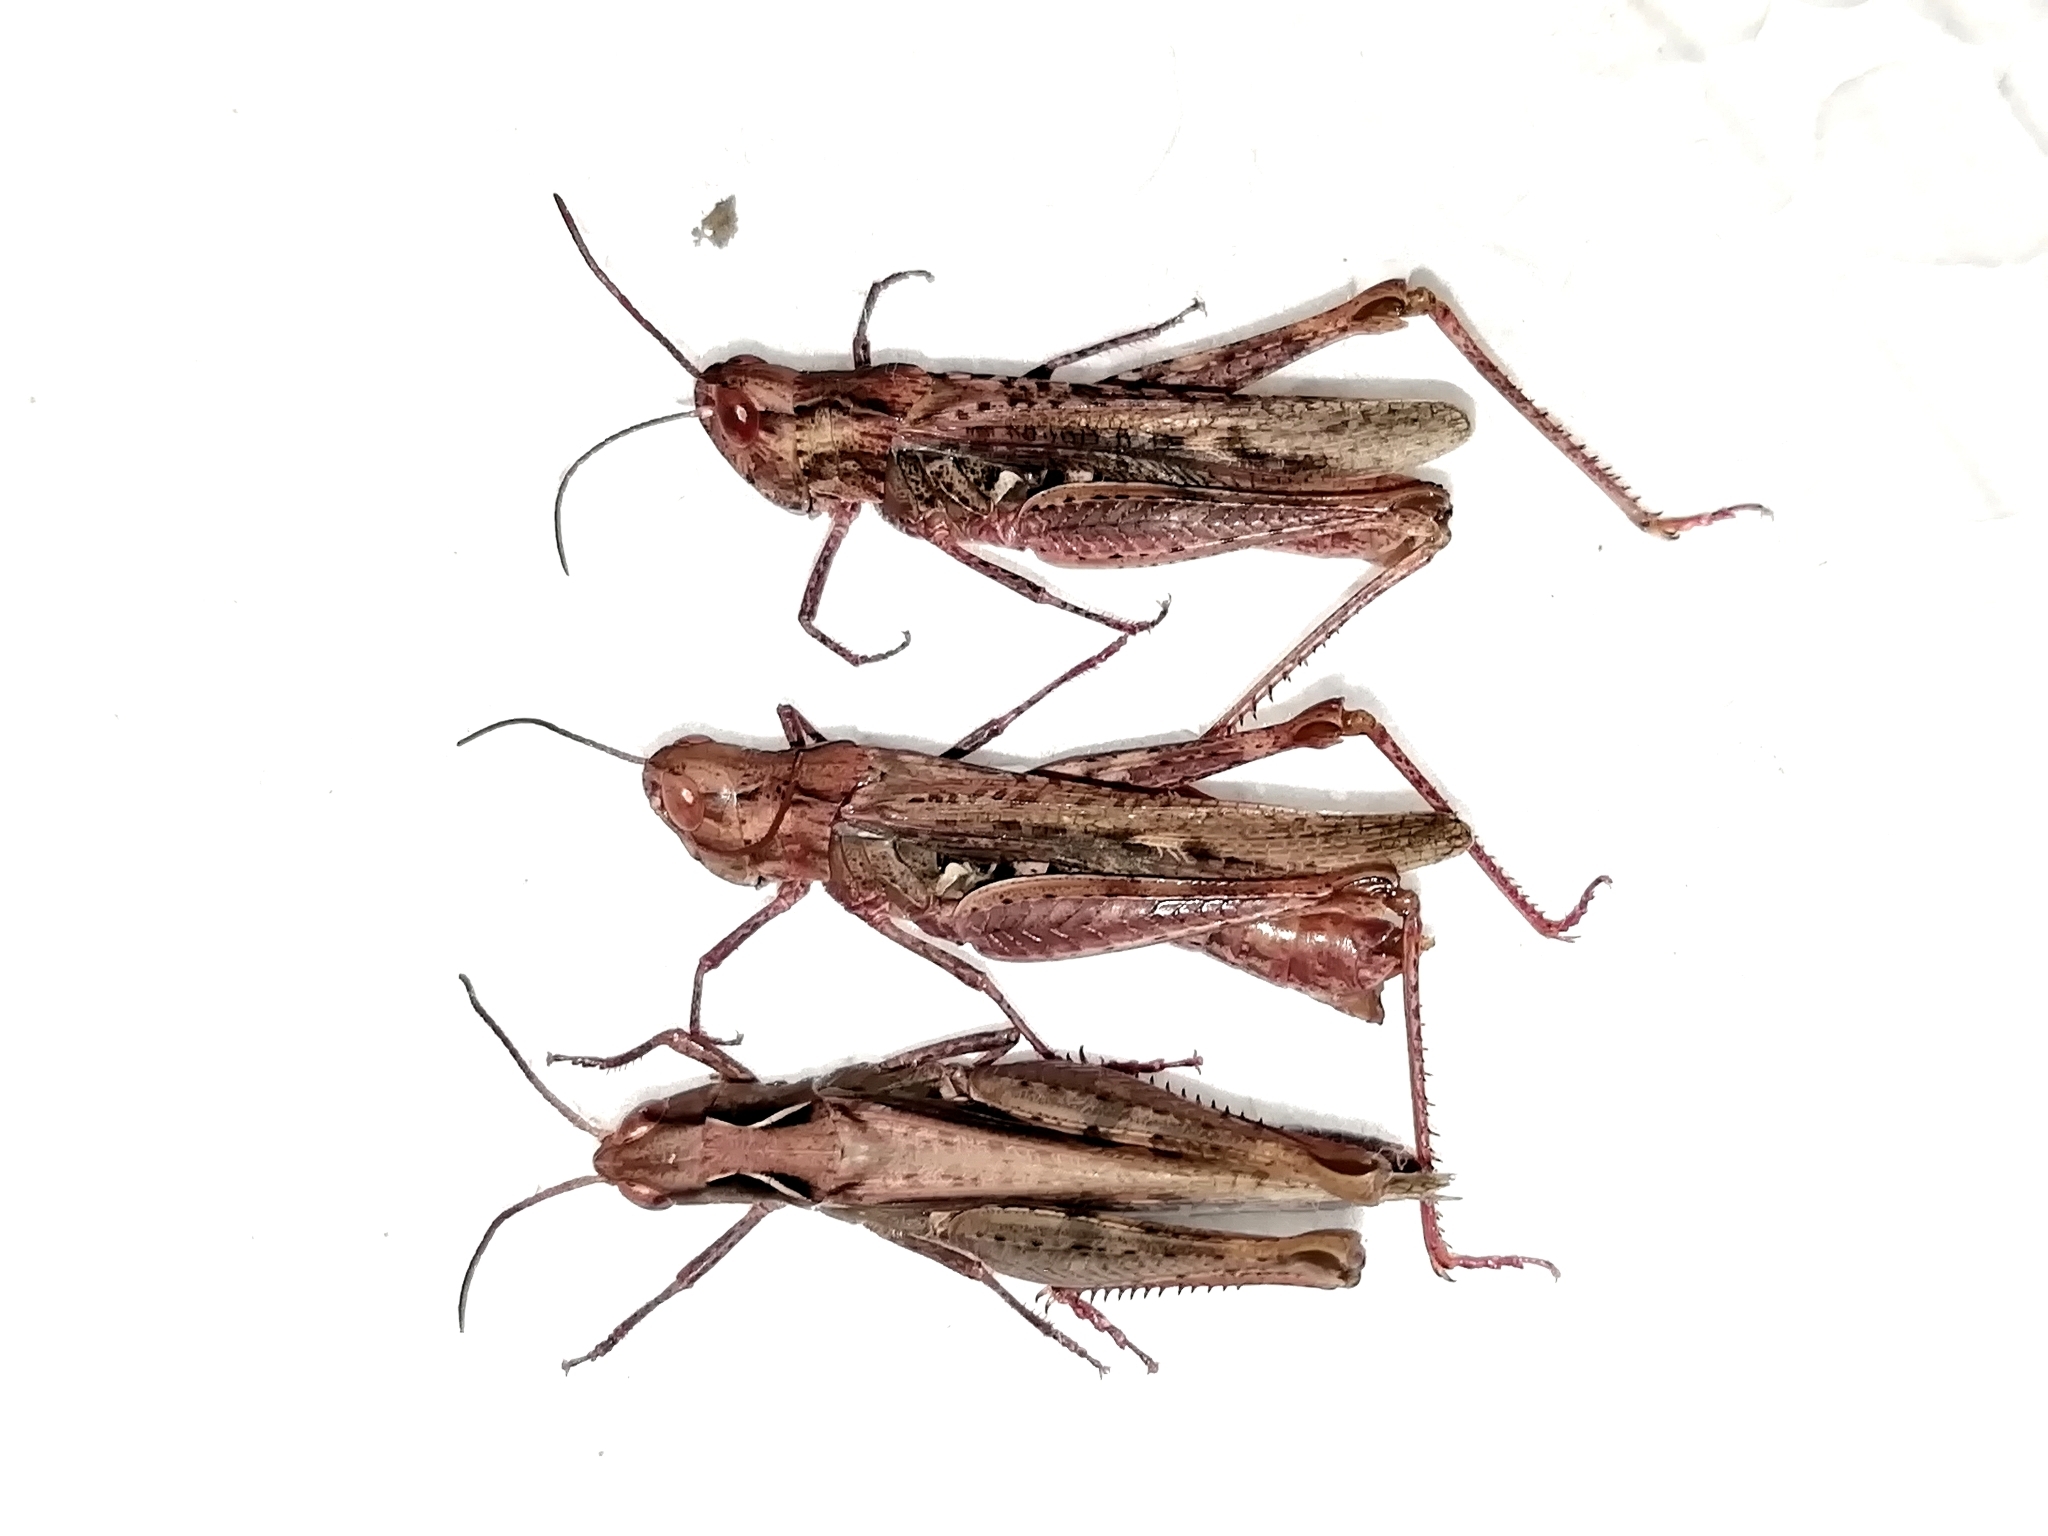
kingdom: Animalia
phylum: Arthropoda
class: Insecta
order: Orthoptera
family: Acrididae
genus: Chorthippus
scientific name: Chorthippus miramae
